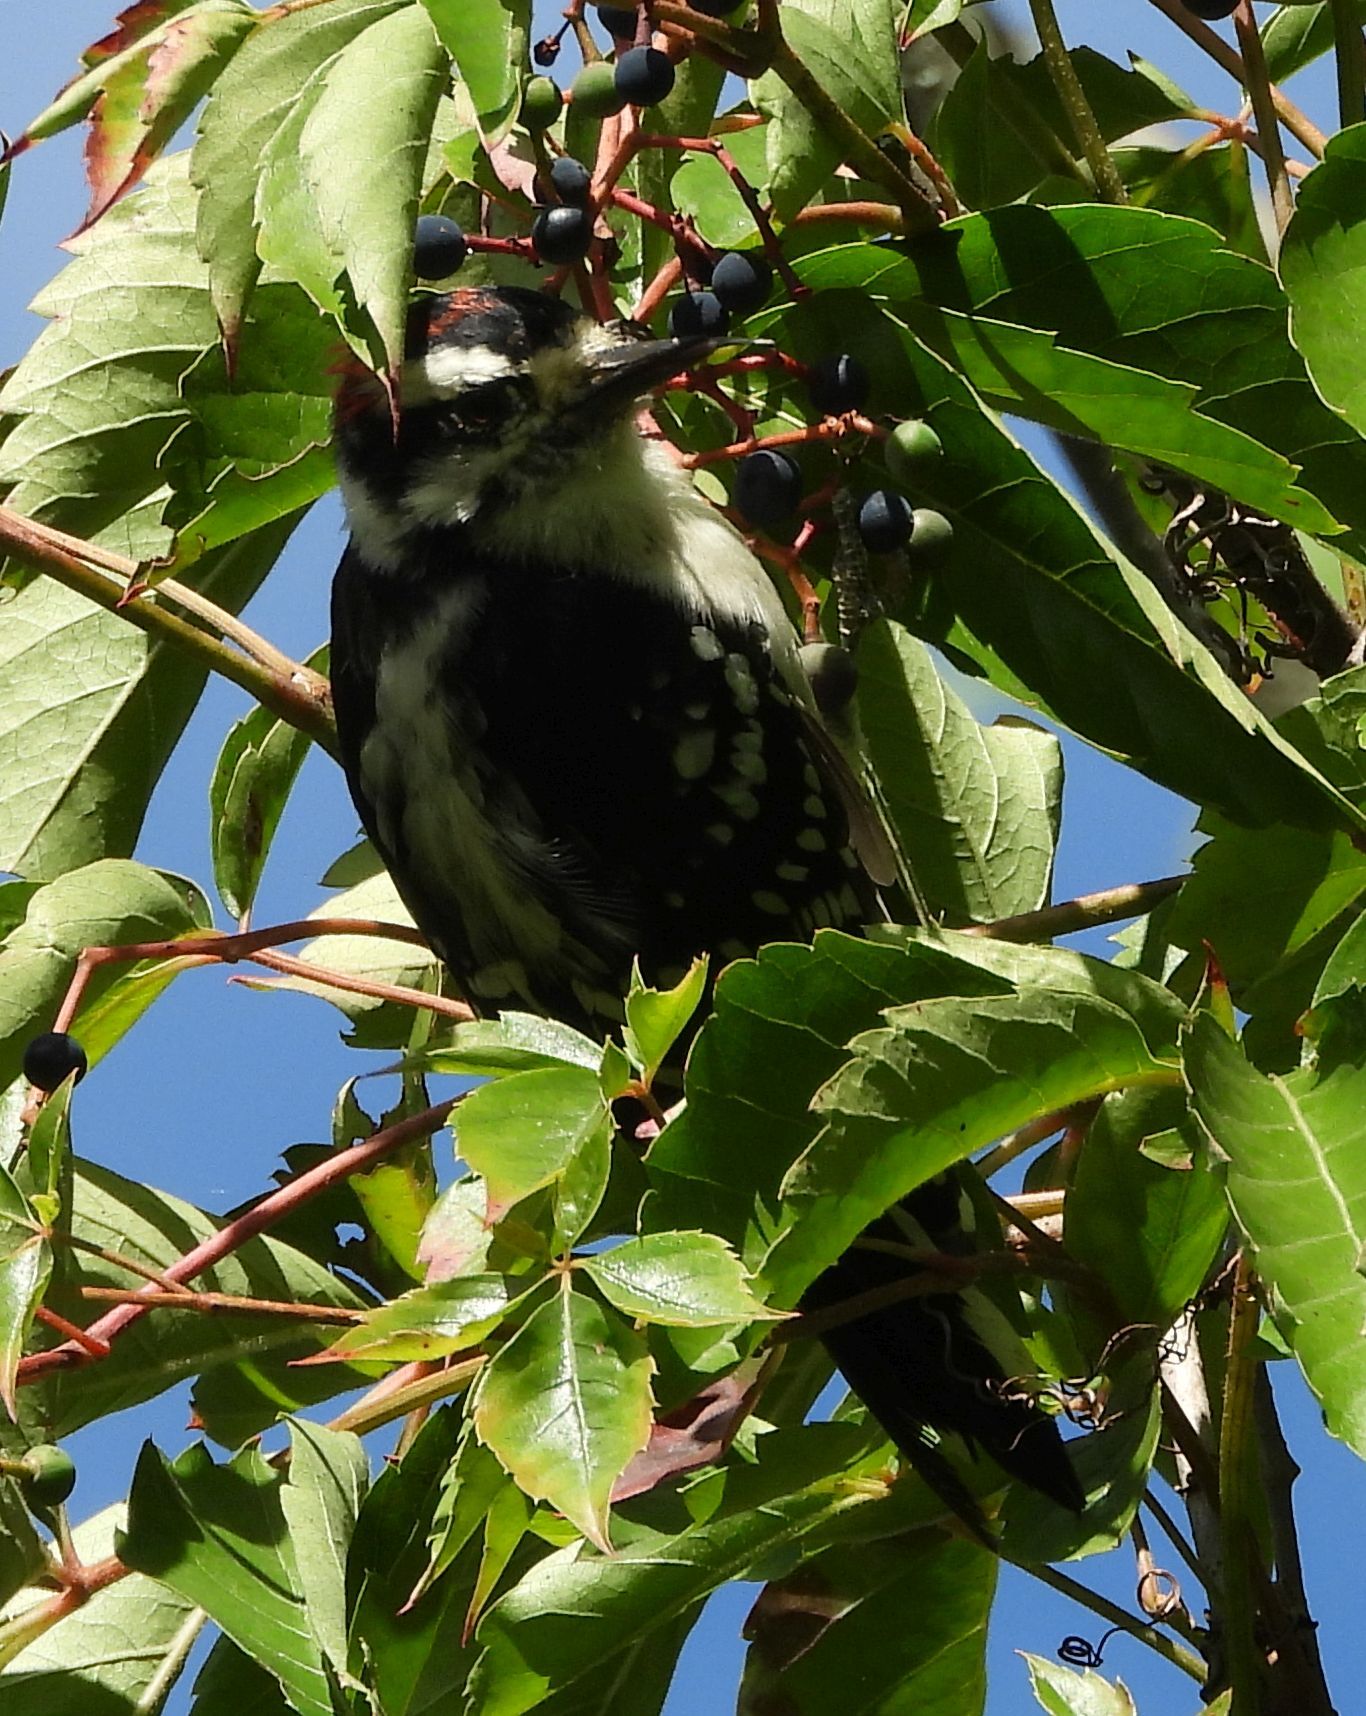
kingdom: Animalia
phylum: Chordata
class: Aves
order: Piciformes
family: Picidae
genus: Dryobates
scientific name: Dryobates pubescens
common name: Downy woodpecker
